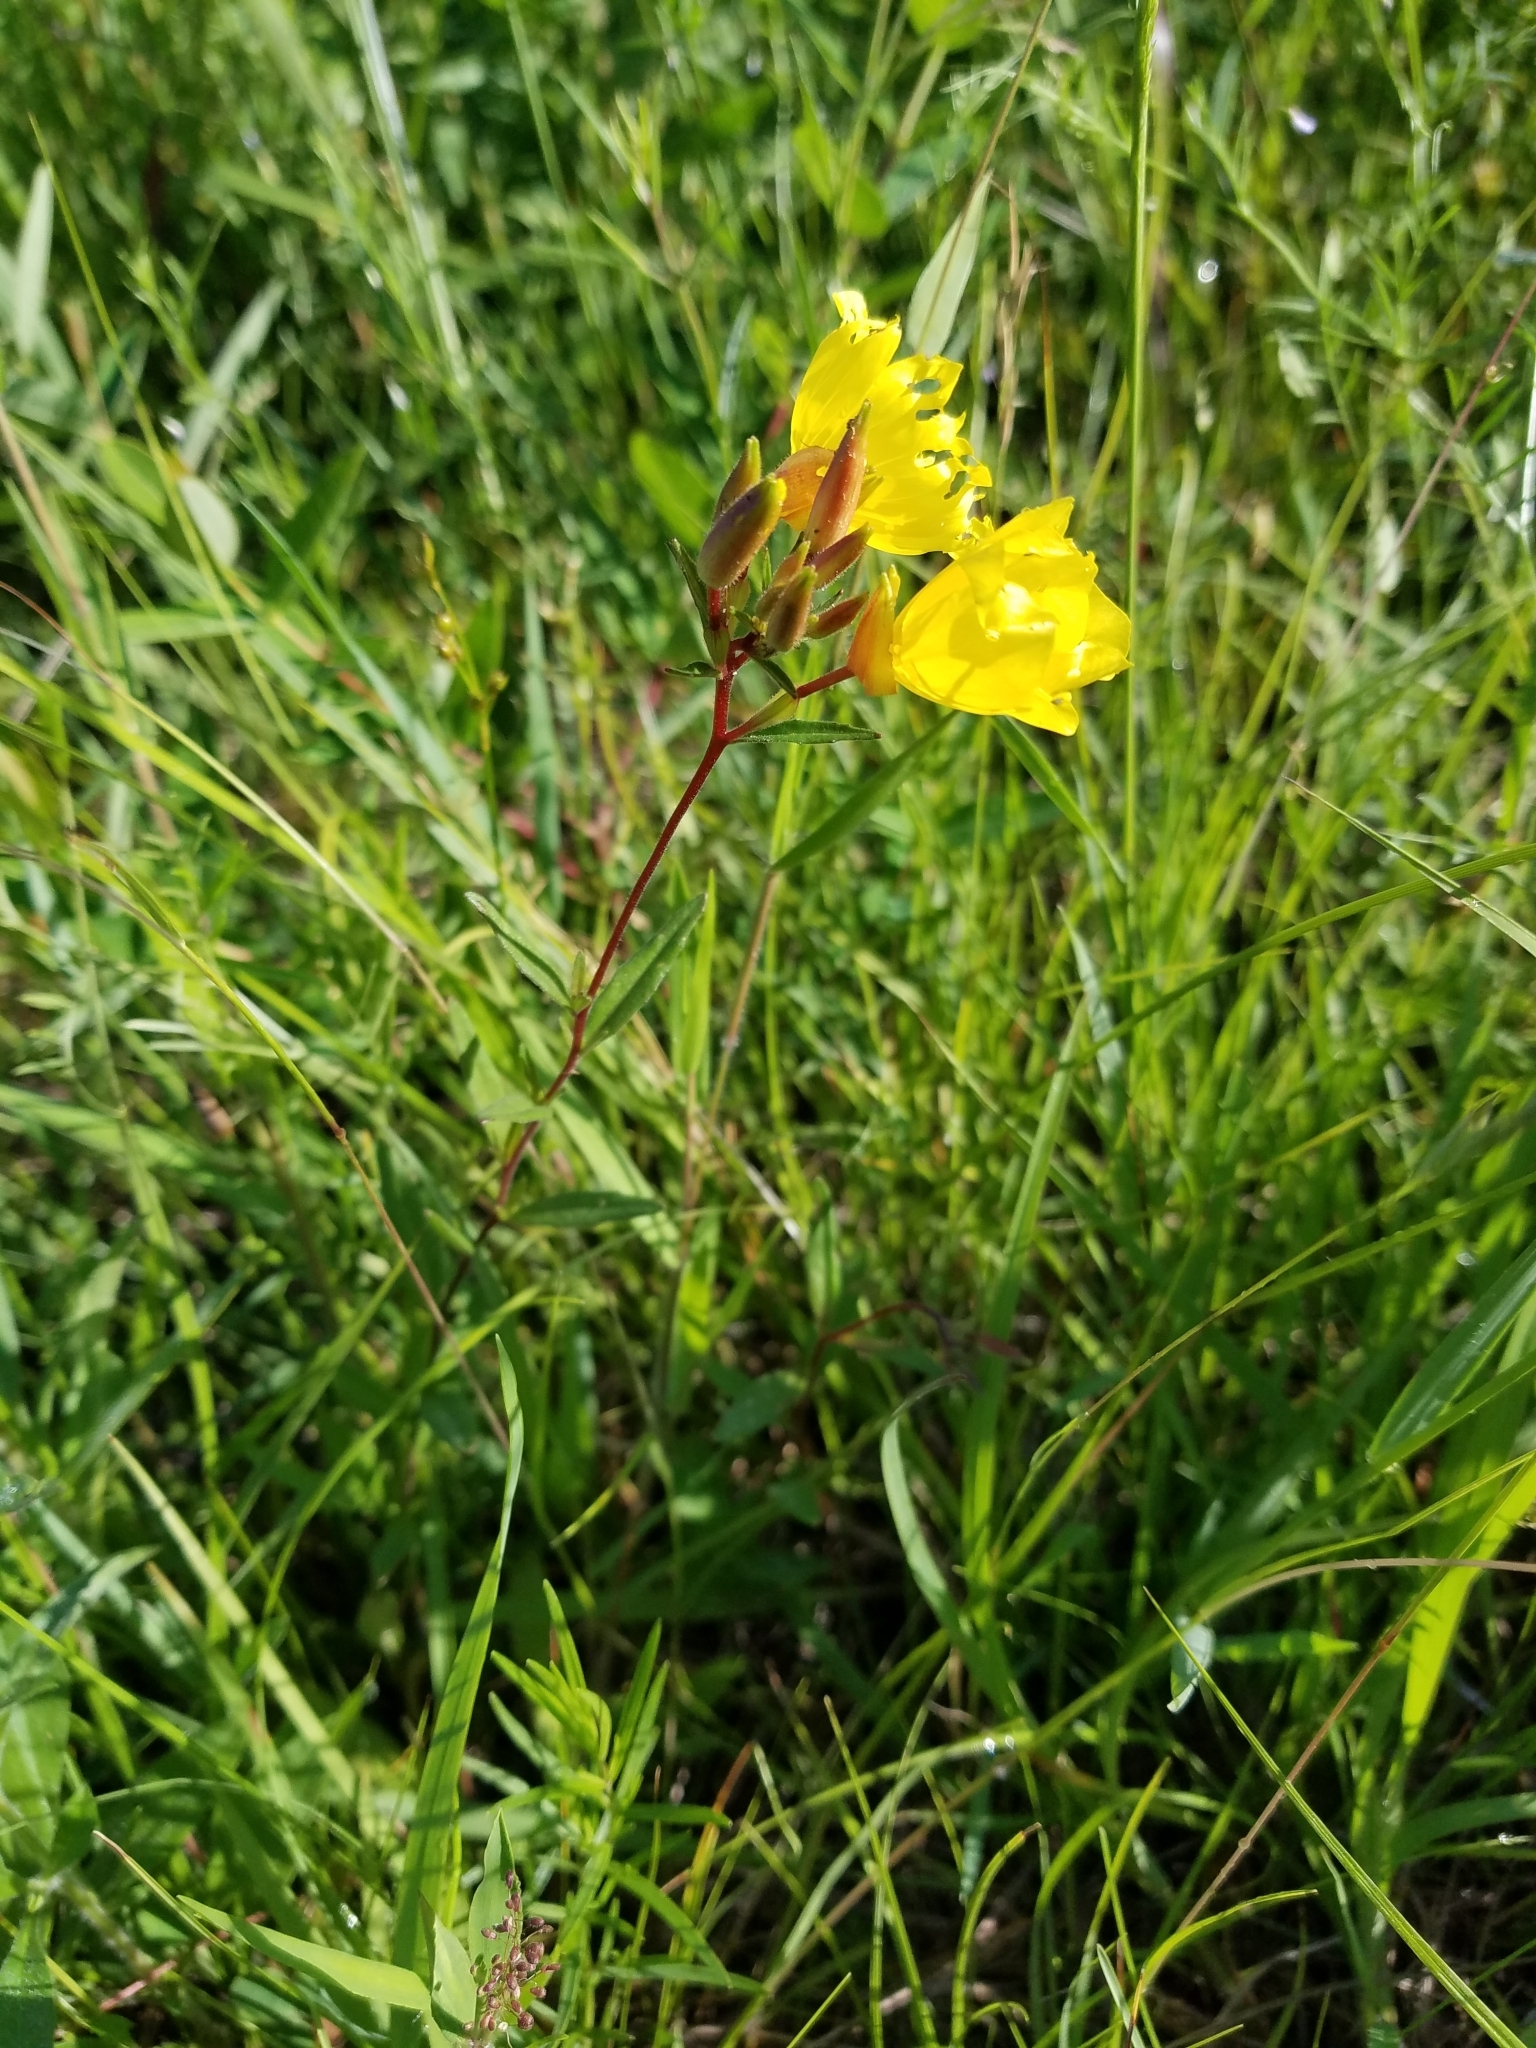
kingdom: Plantae
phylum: Tracheophyta
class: Magnoliopsida
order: Myrtales
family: Onagraceae
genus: Oenothera
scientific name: Oenothera tetragona
